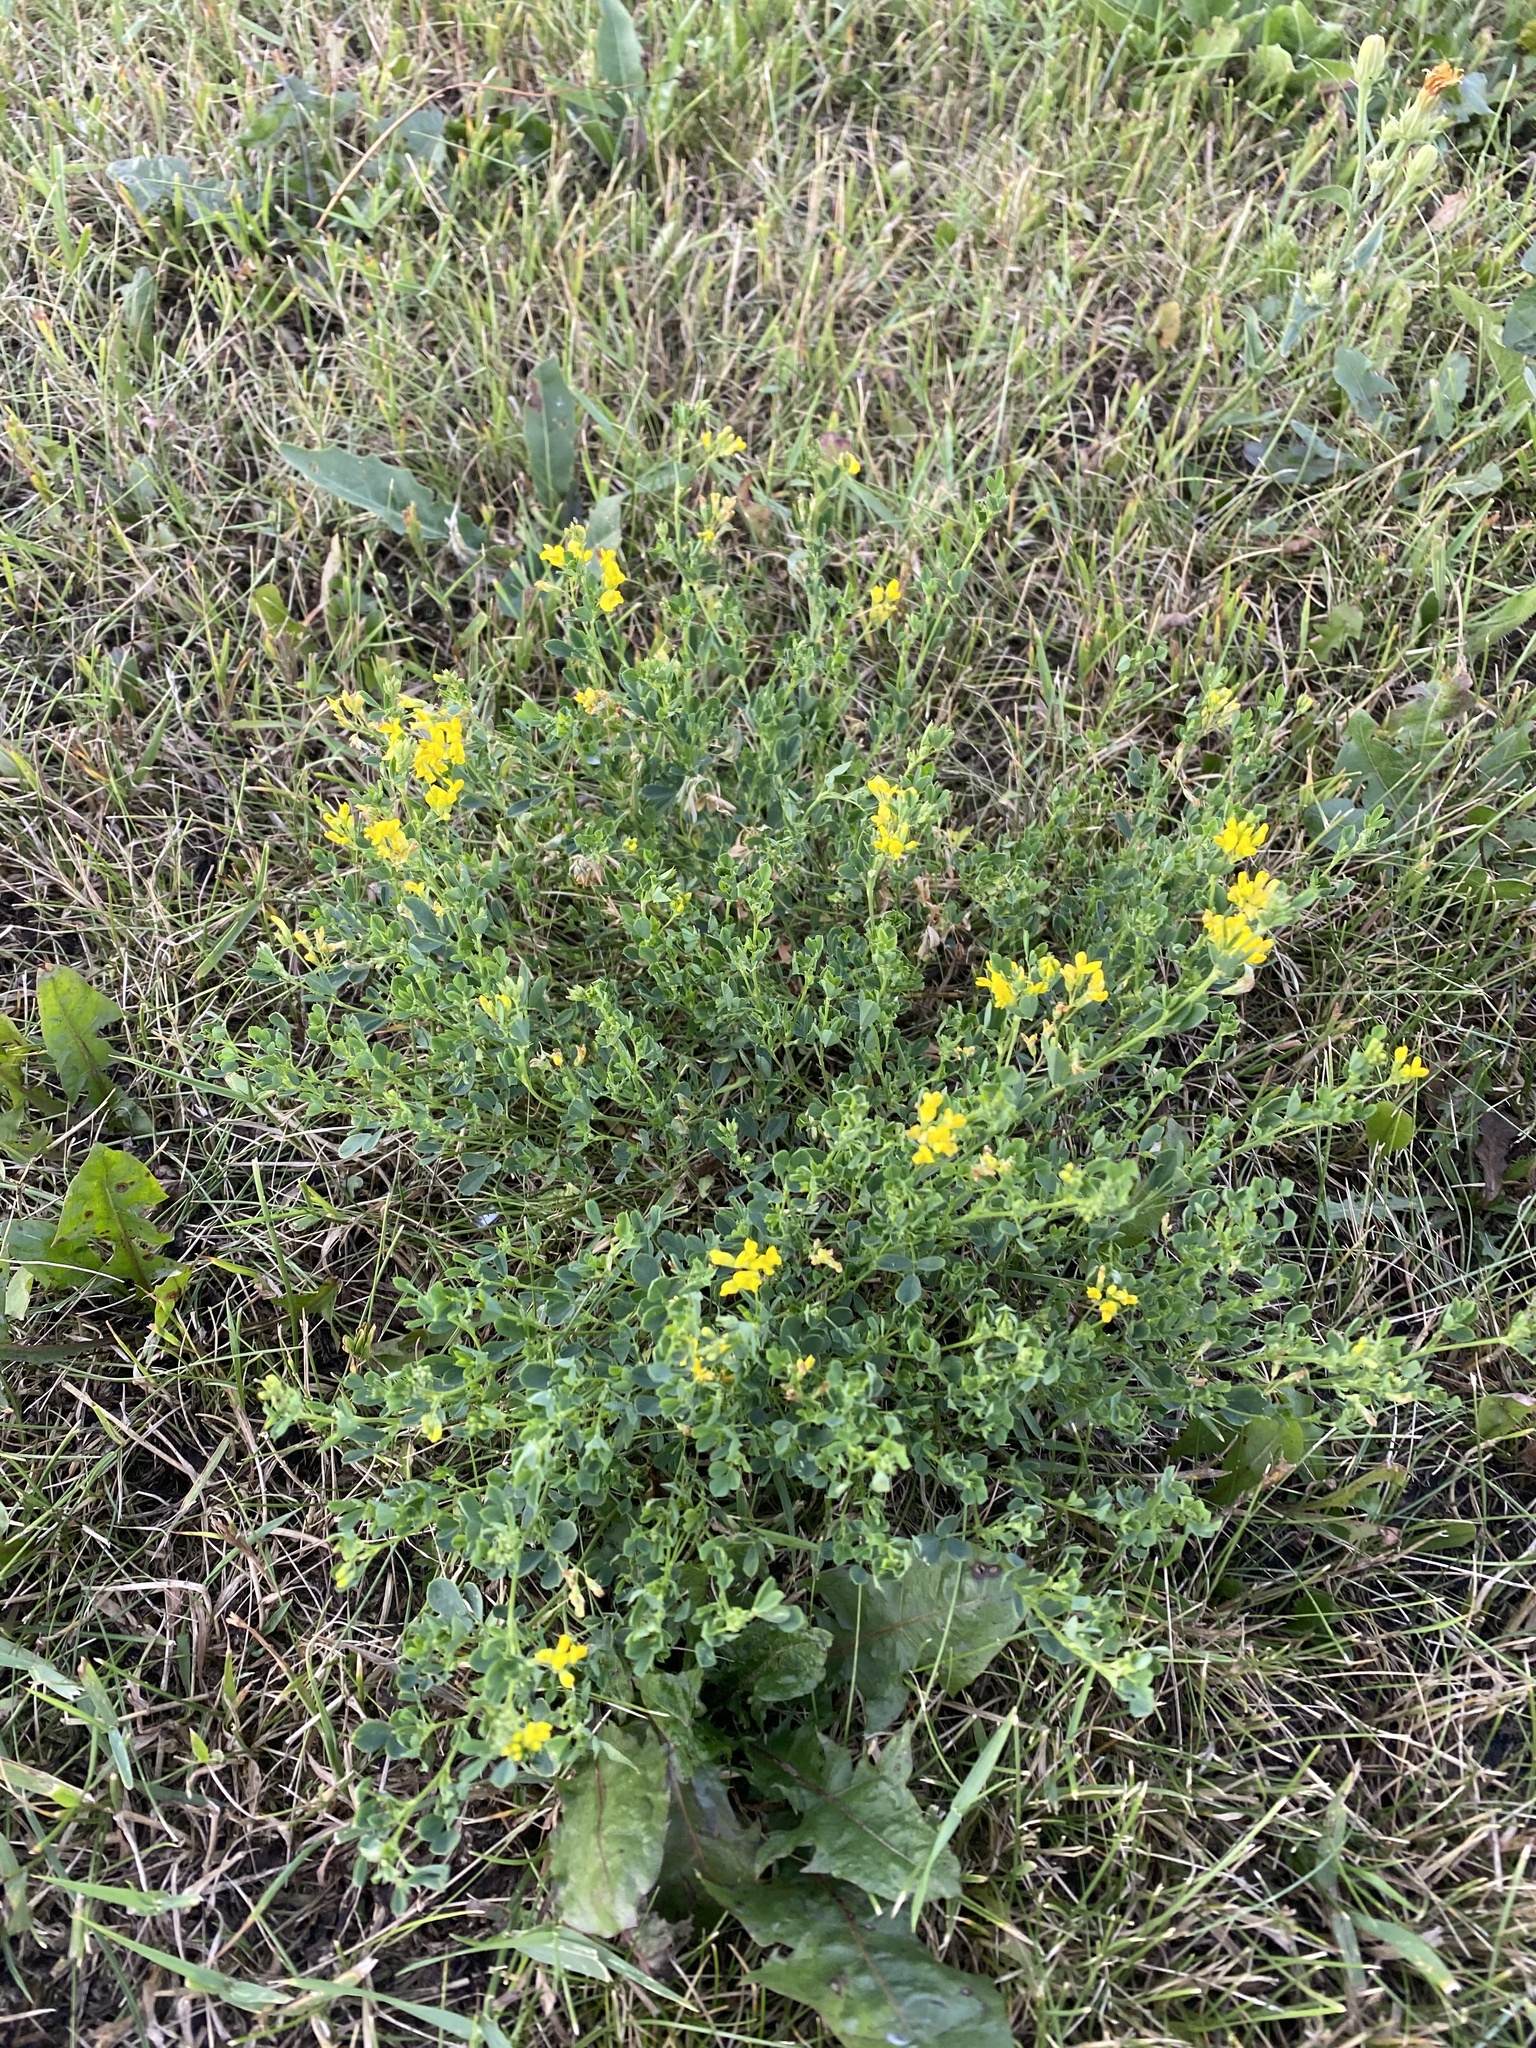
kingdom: Plantae
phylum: Tracheophyta
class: Magnoliopsida
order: Fabales
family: Fabaceae
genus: Medicago
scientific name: Medicago falcata
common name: Sickle medick
